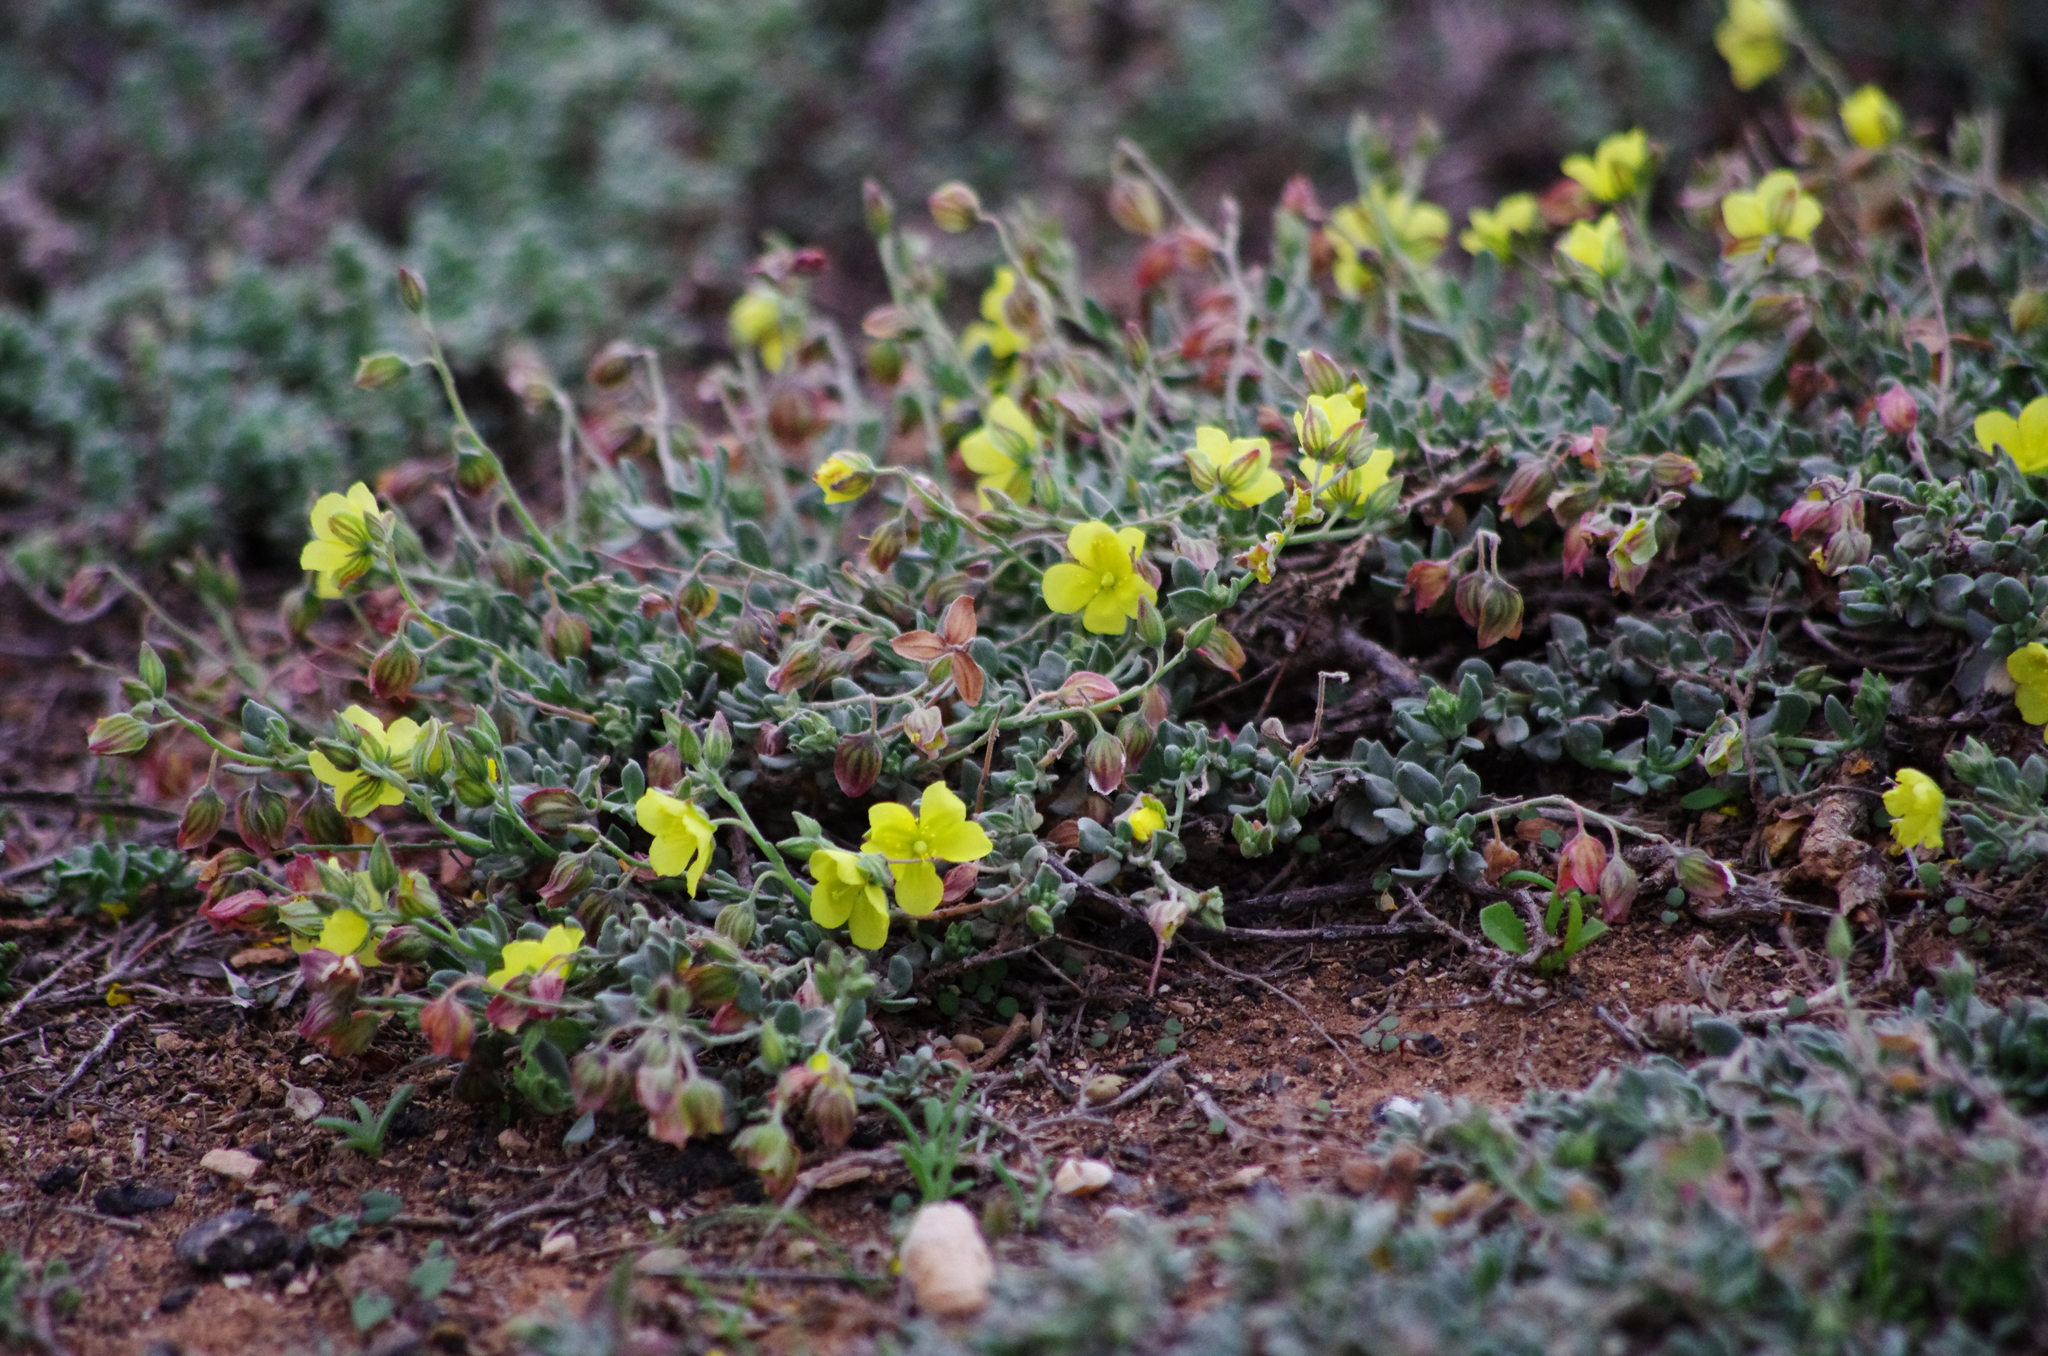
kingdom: Plantae
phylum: Tracheophyta
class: Magnoliopsida
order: Malvales
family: Cistaceae
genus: Helianthemum
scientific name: Helianthemum canariense
